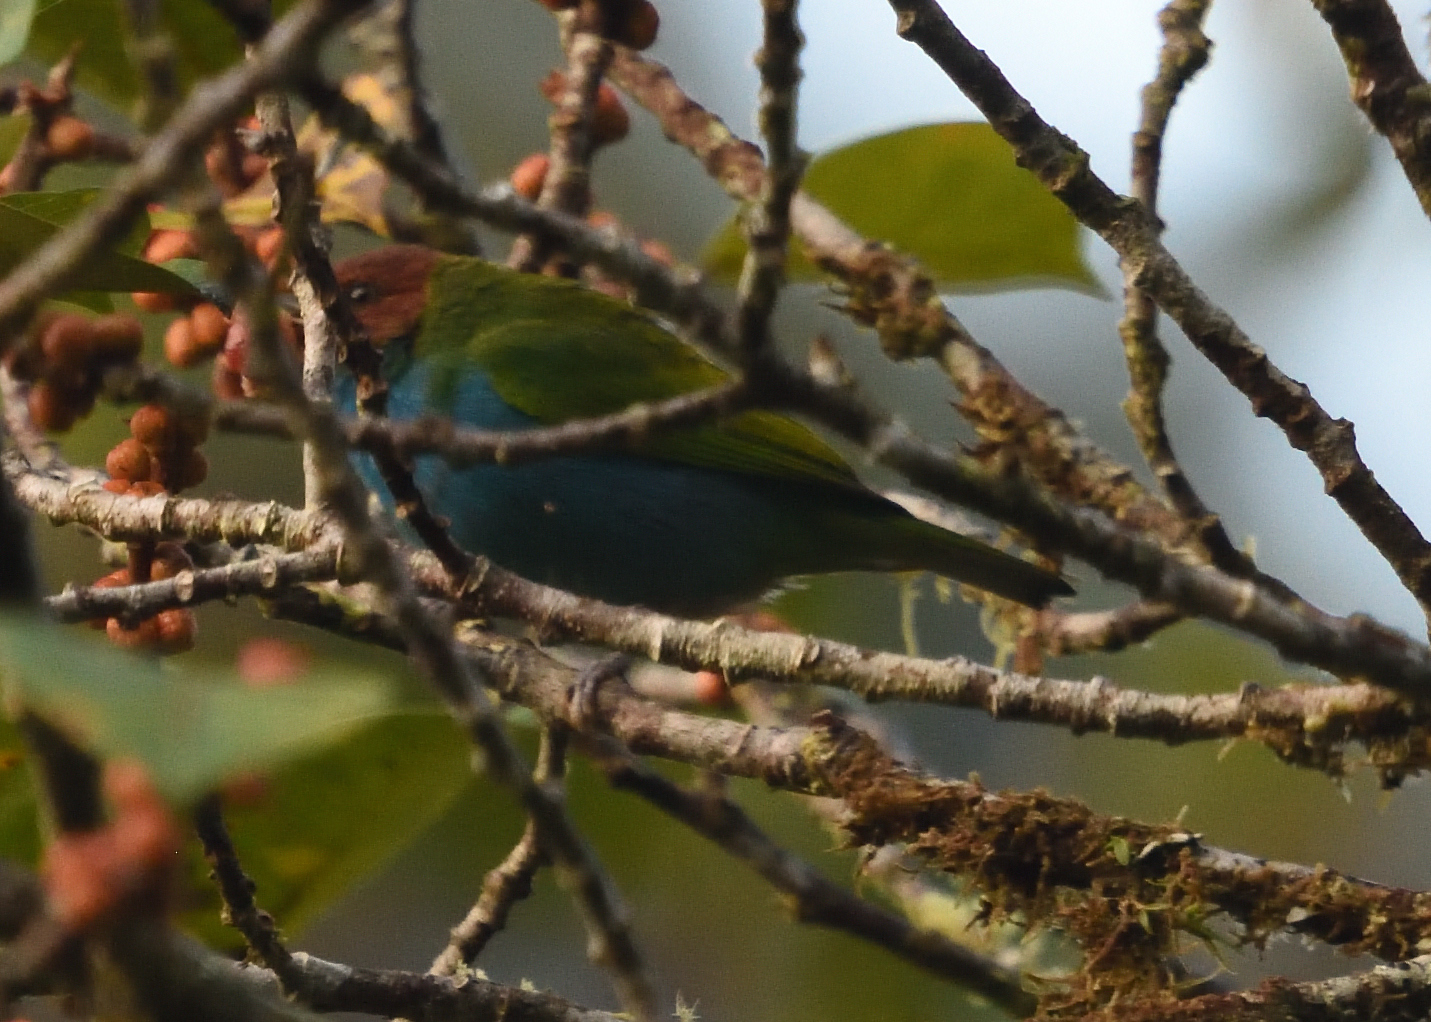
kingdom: Animalia
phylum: Chordata
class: Aves
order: Passeriformes
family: Thraupidae
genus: Tangara
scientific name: Tangara gyrola
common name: Bay-headed tanager
